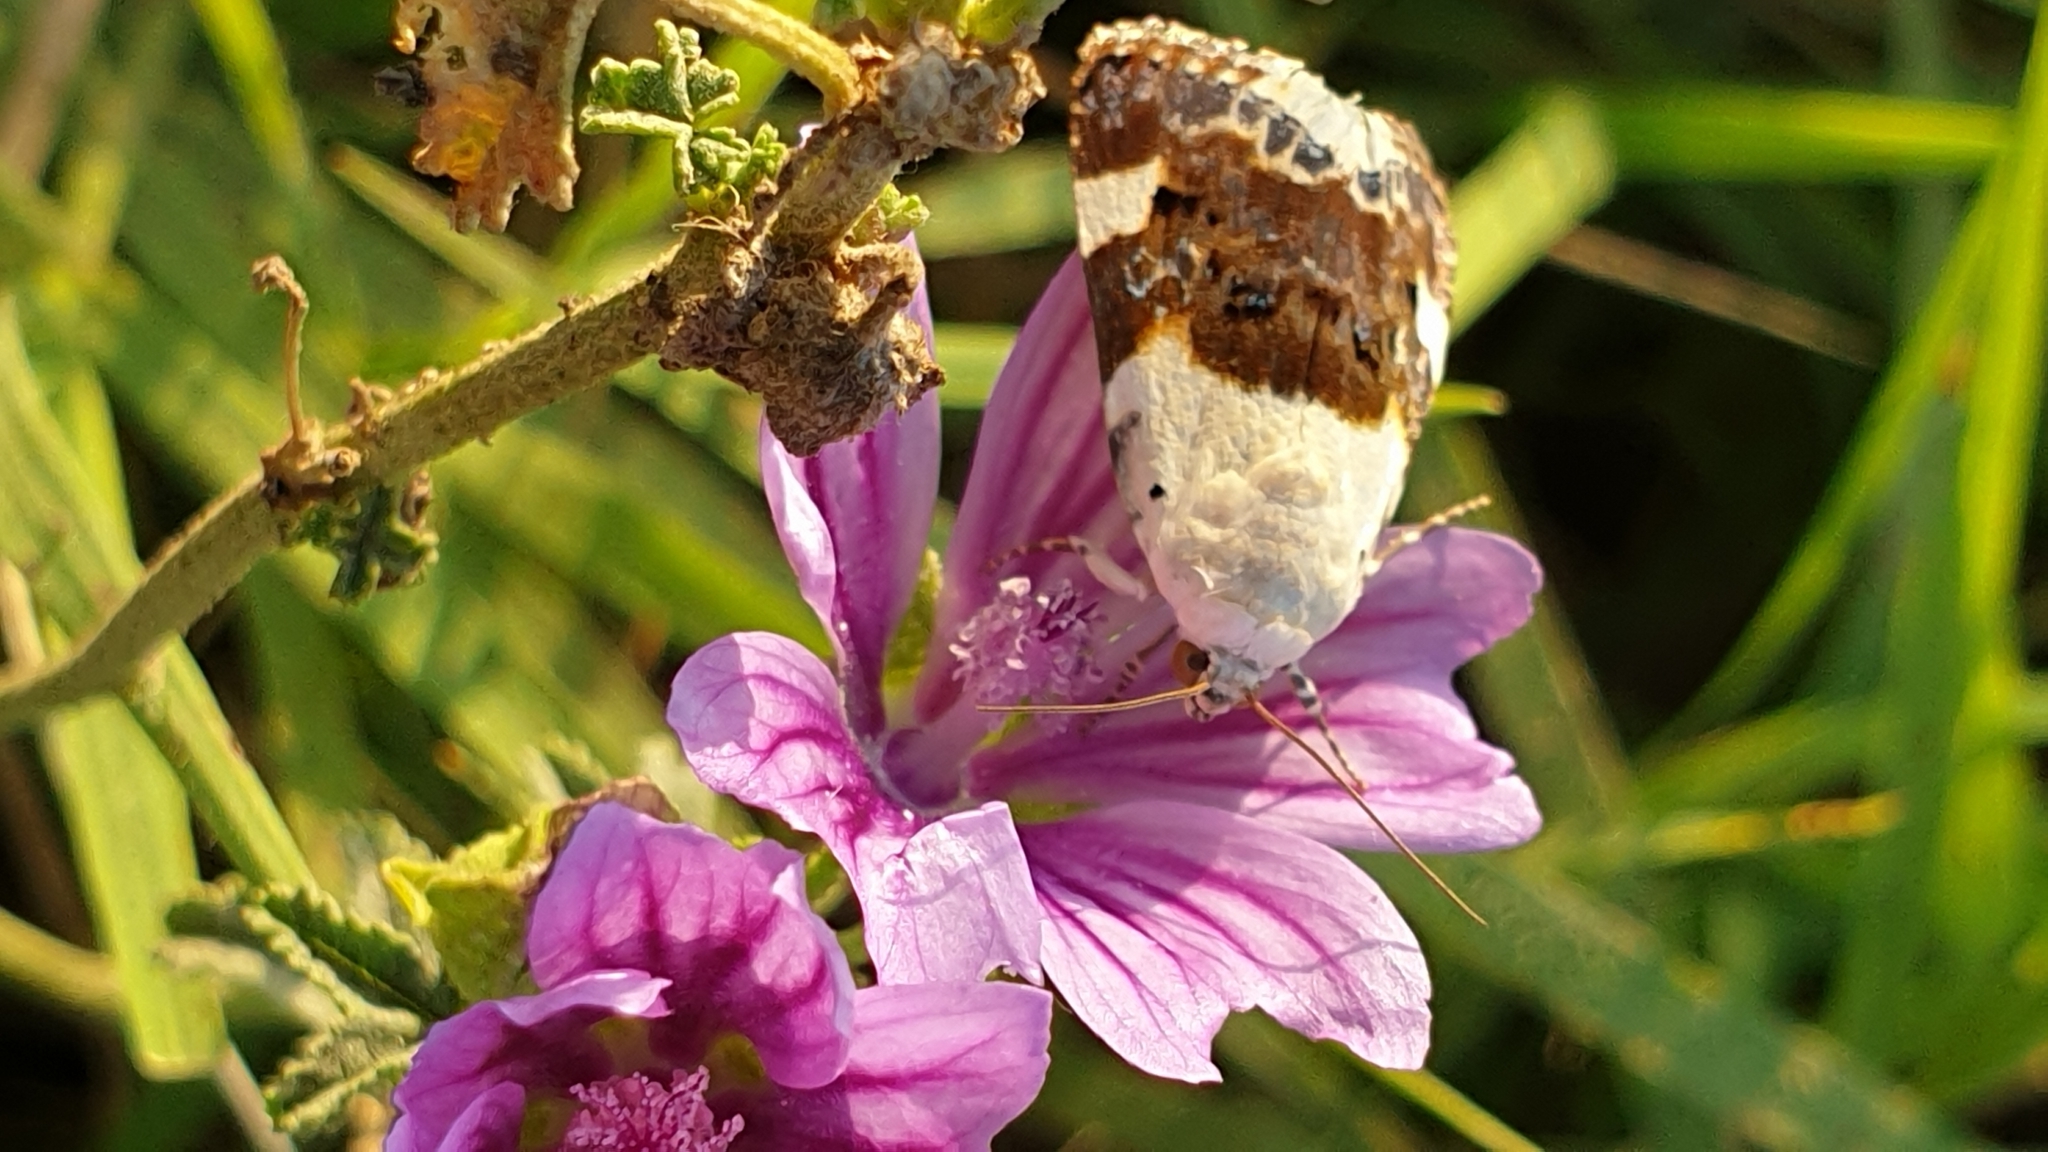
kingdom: Animalia
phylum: Arthropoda
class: Insecta
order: Lepidoptera
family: Noctuidae
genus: Acontia
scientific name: Acontia lucida
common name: Pale shoulder
